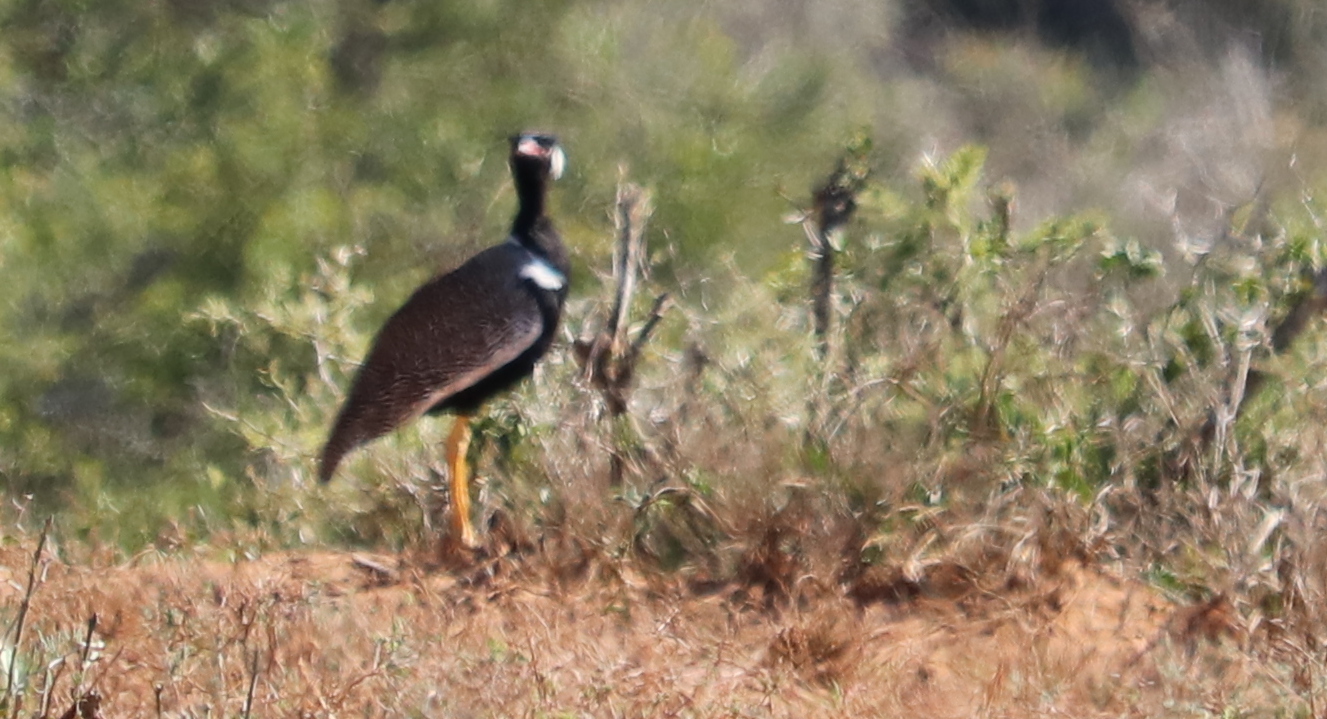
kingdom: Animalia
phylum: Chordata
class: Aves
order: Otidiformes
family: Otididae
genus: Afrotis
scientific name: Afrotis afra
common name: Southern black korhaan
